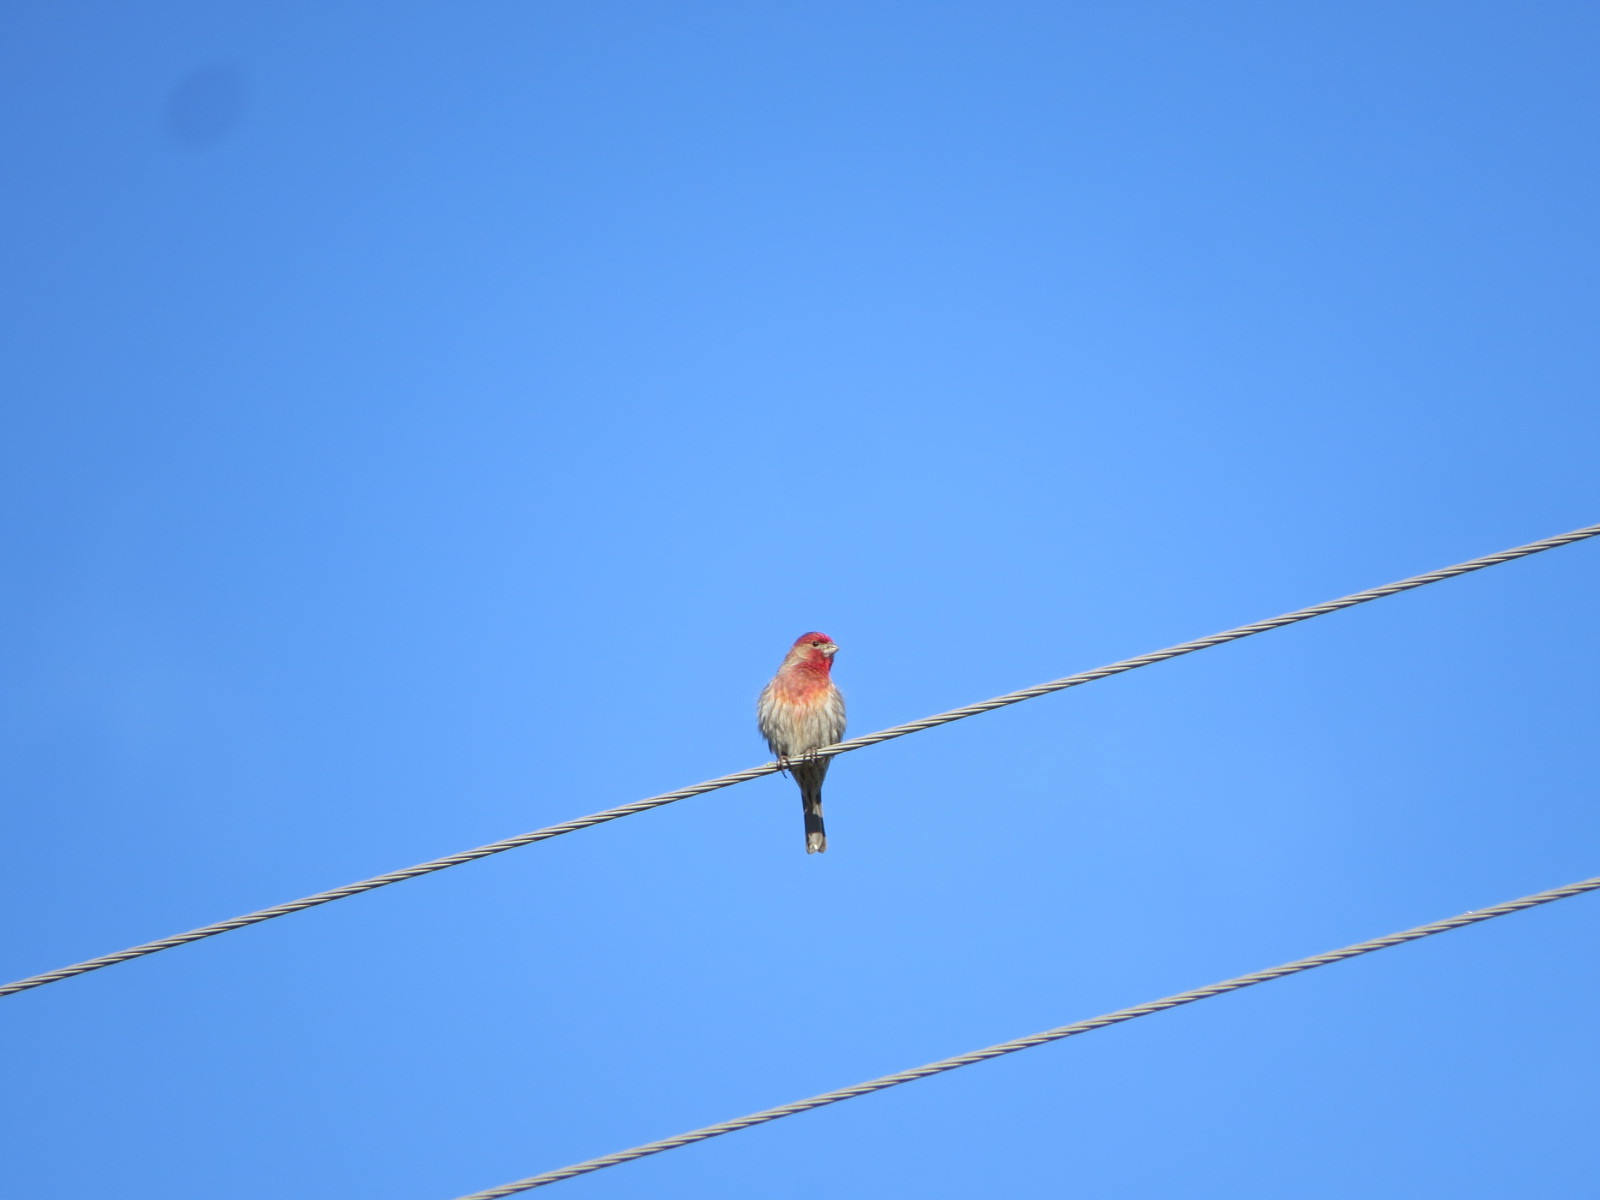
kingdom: Animalia
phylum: Chordata
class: Aves
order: Passeriformes
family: Fringillidae
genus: Haemorhous
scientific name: Haemorhous mexicanus
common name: House finch
